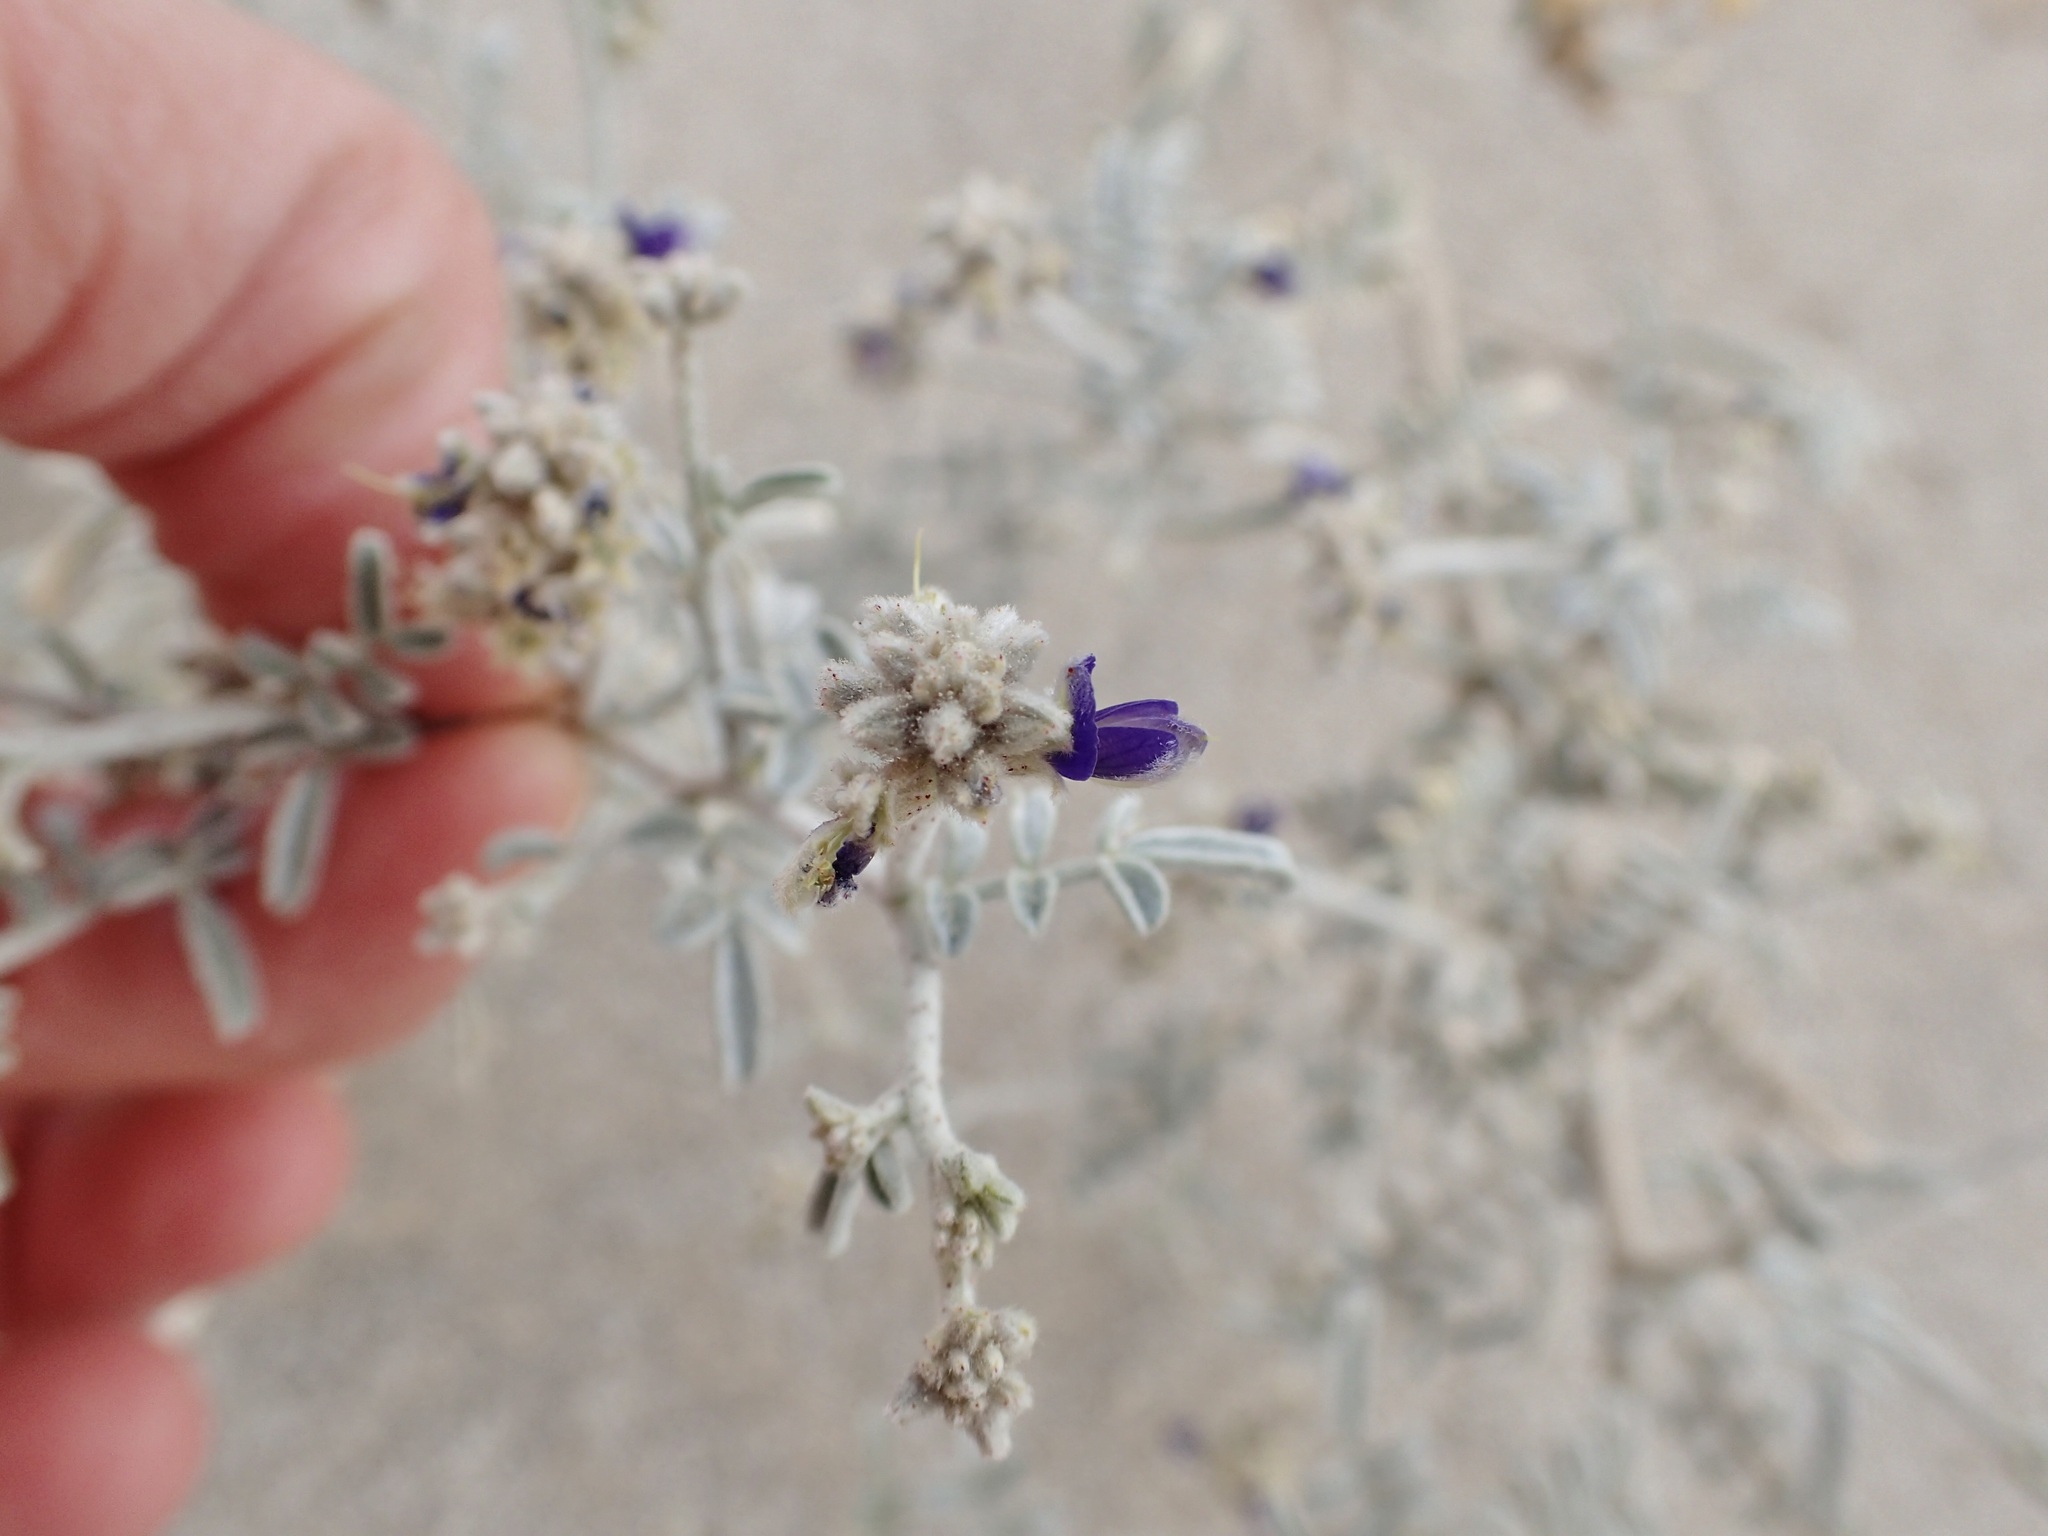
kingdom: Plantae
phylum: Tracheophyta
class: Magnoliopsida
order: Fabales
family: Fabaceae
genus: Psorothamnus
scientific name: Psorothamnus emoryi
